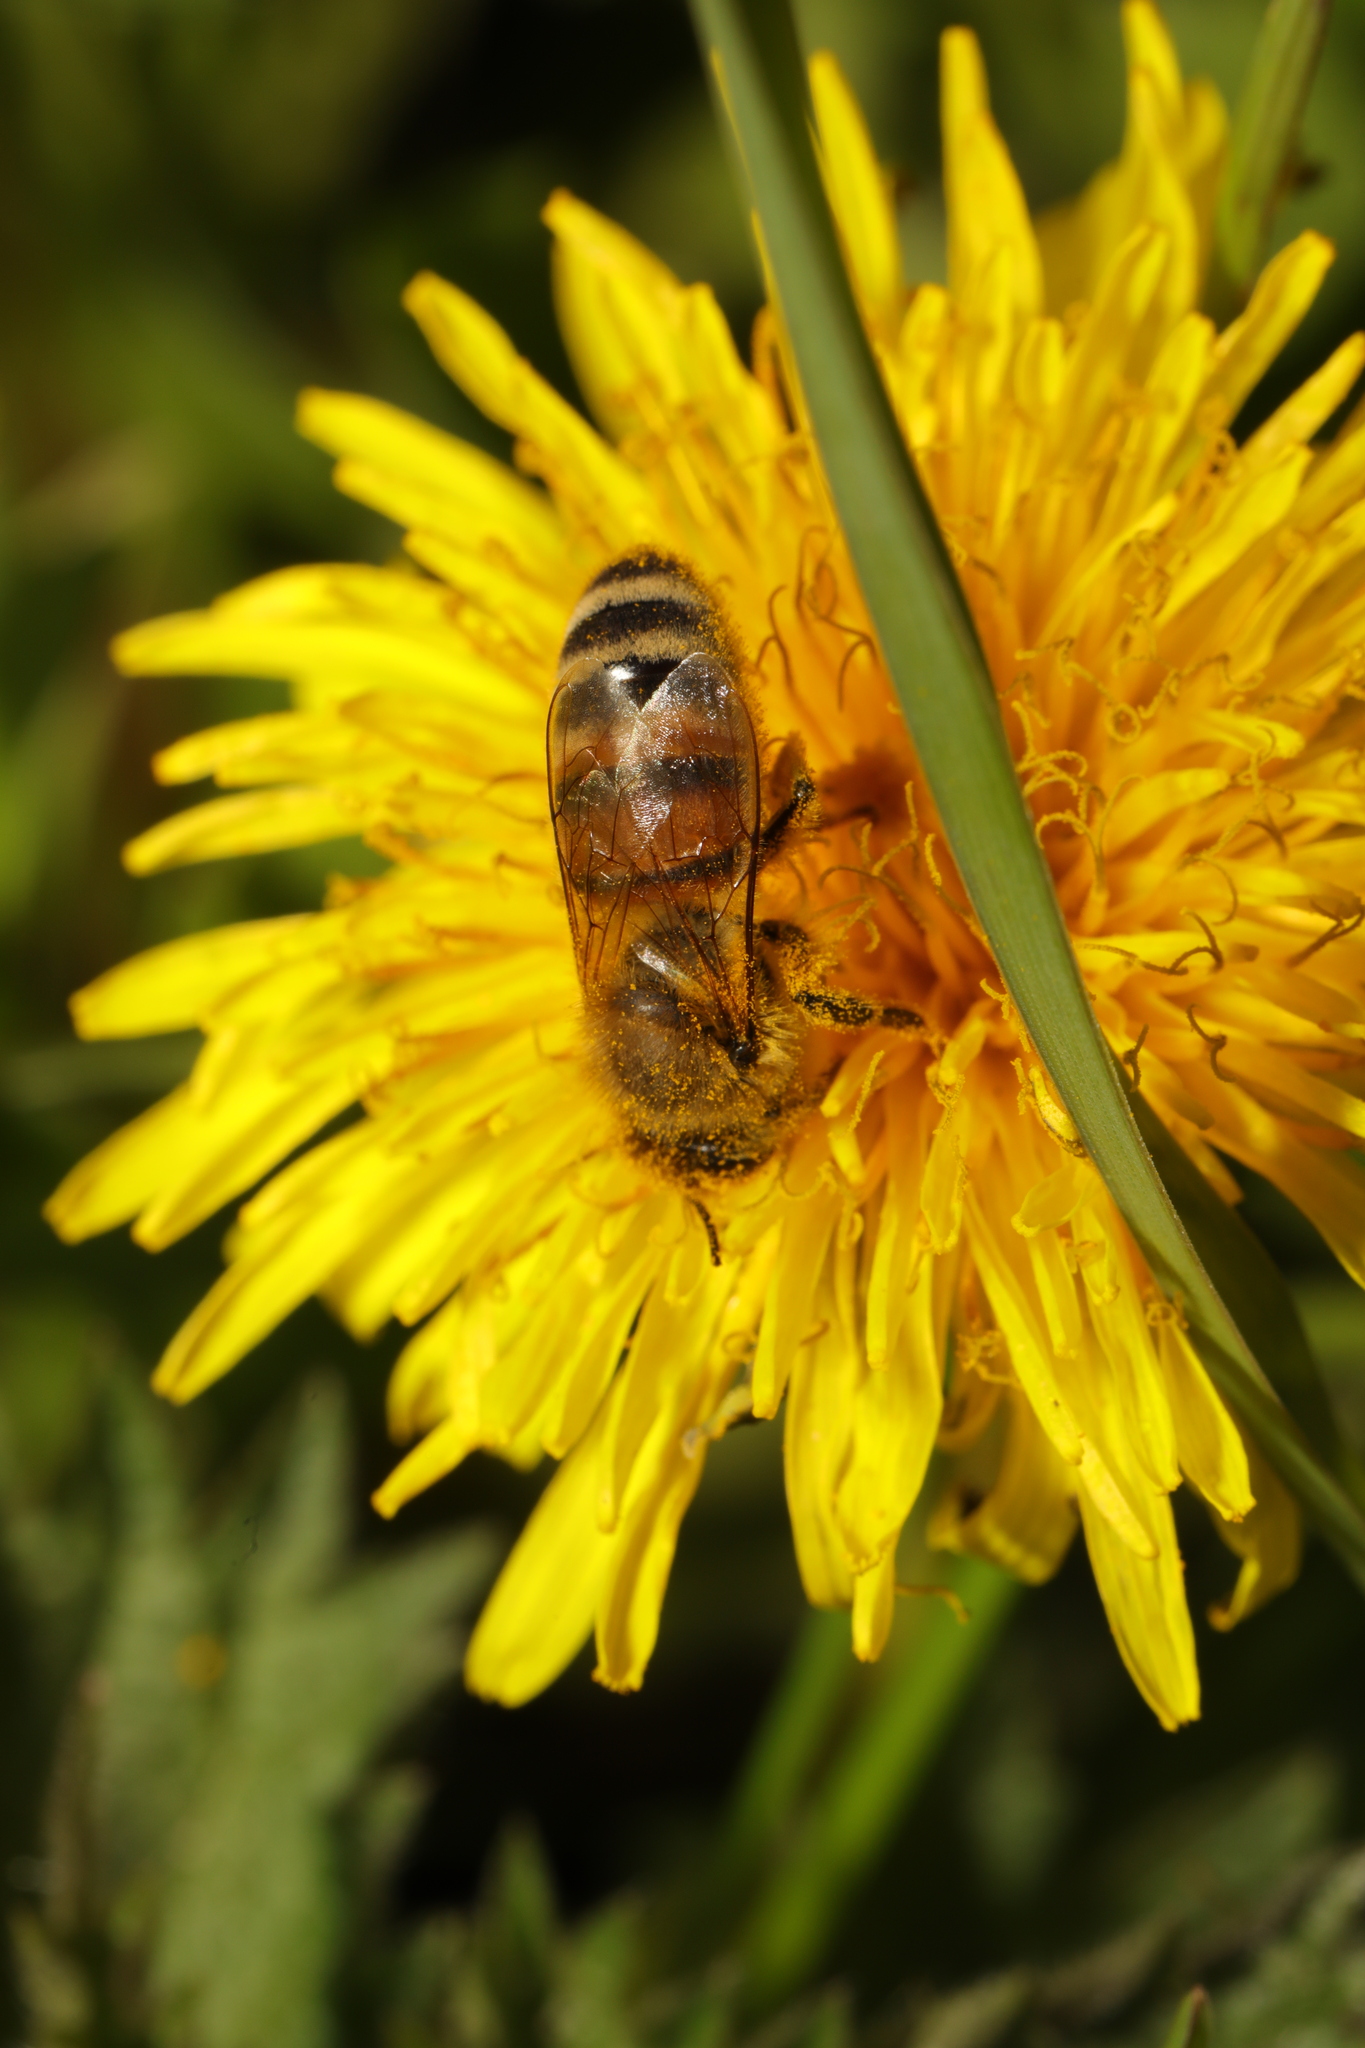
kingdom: Animalia
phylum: Arthropoda
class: Insecta
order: Hymenoptera
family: Apidae
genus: Apis
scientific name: Apis mellifera
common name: Honey bee
